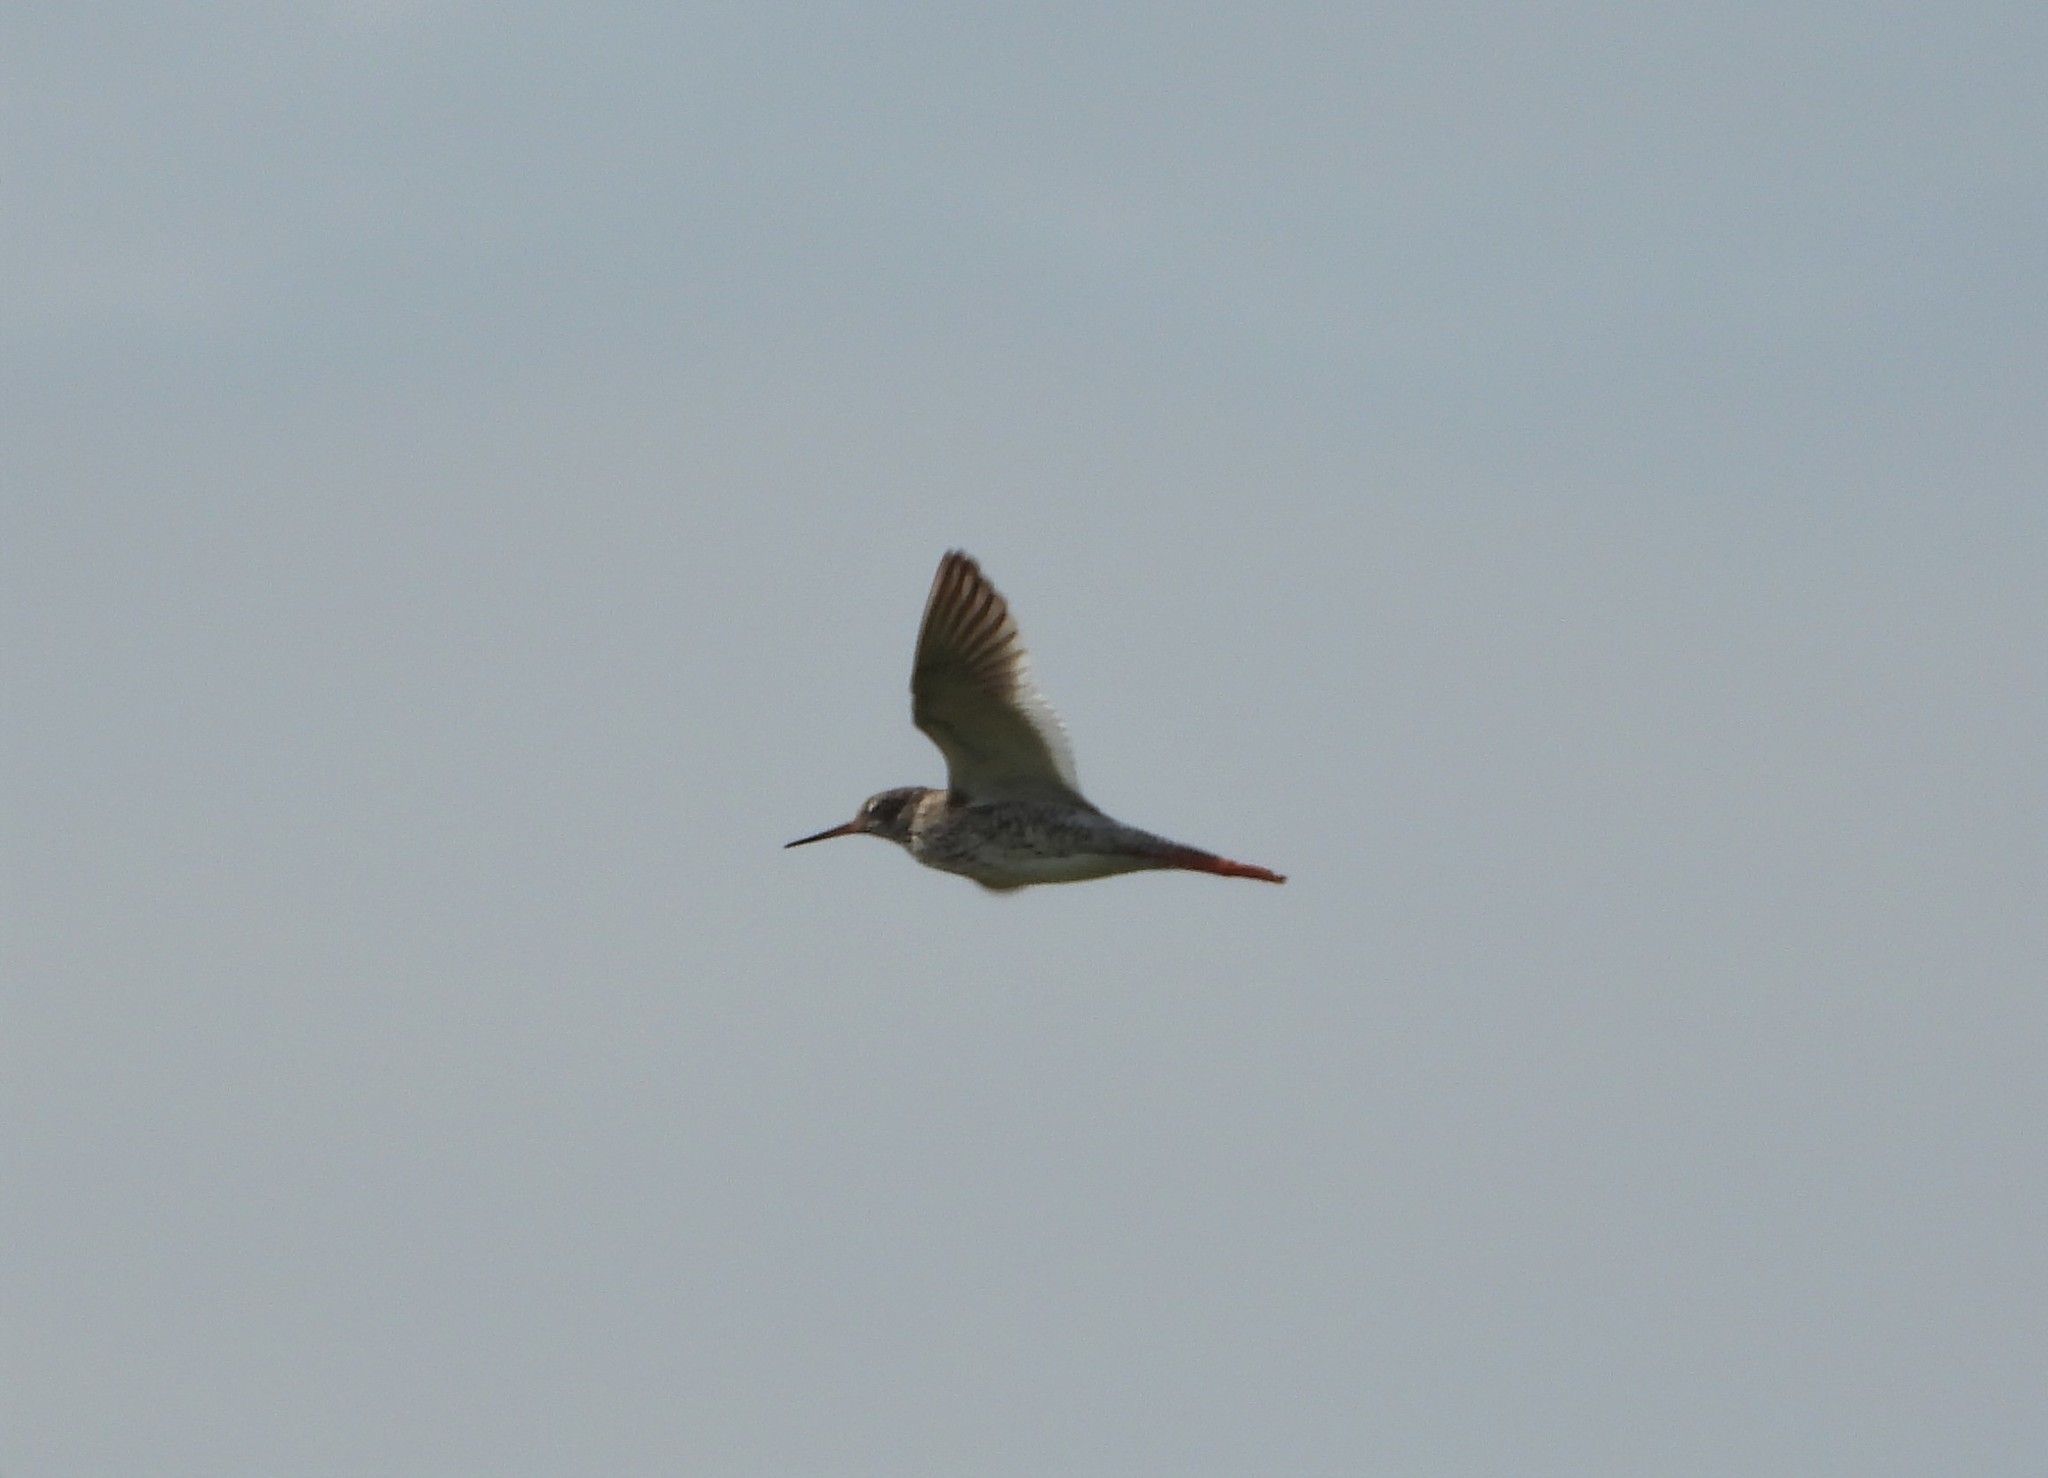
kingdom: Animalia
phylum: Chordata
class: Aves
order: Charadriiformes
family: Scolopacidae
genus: Tringa
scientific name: Tringa totanus
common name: Common redshank
